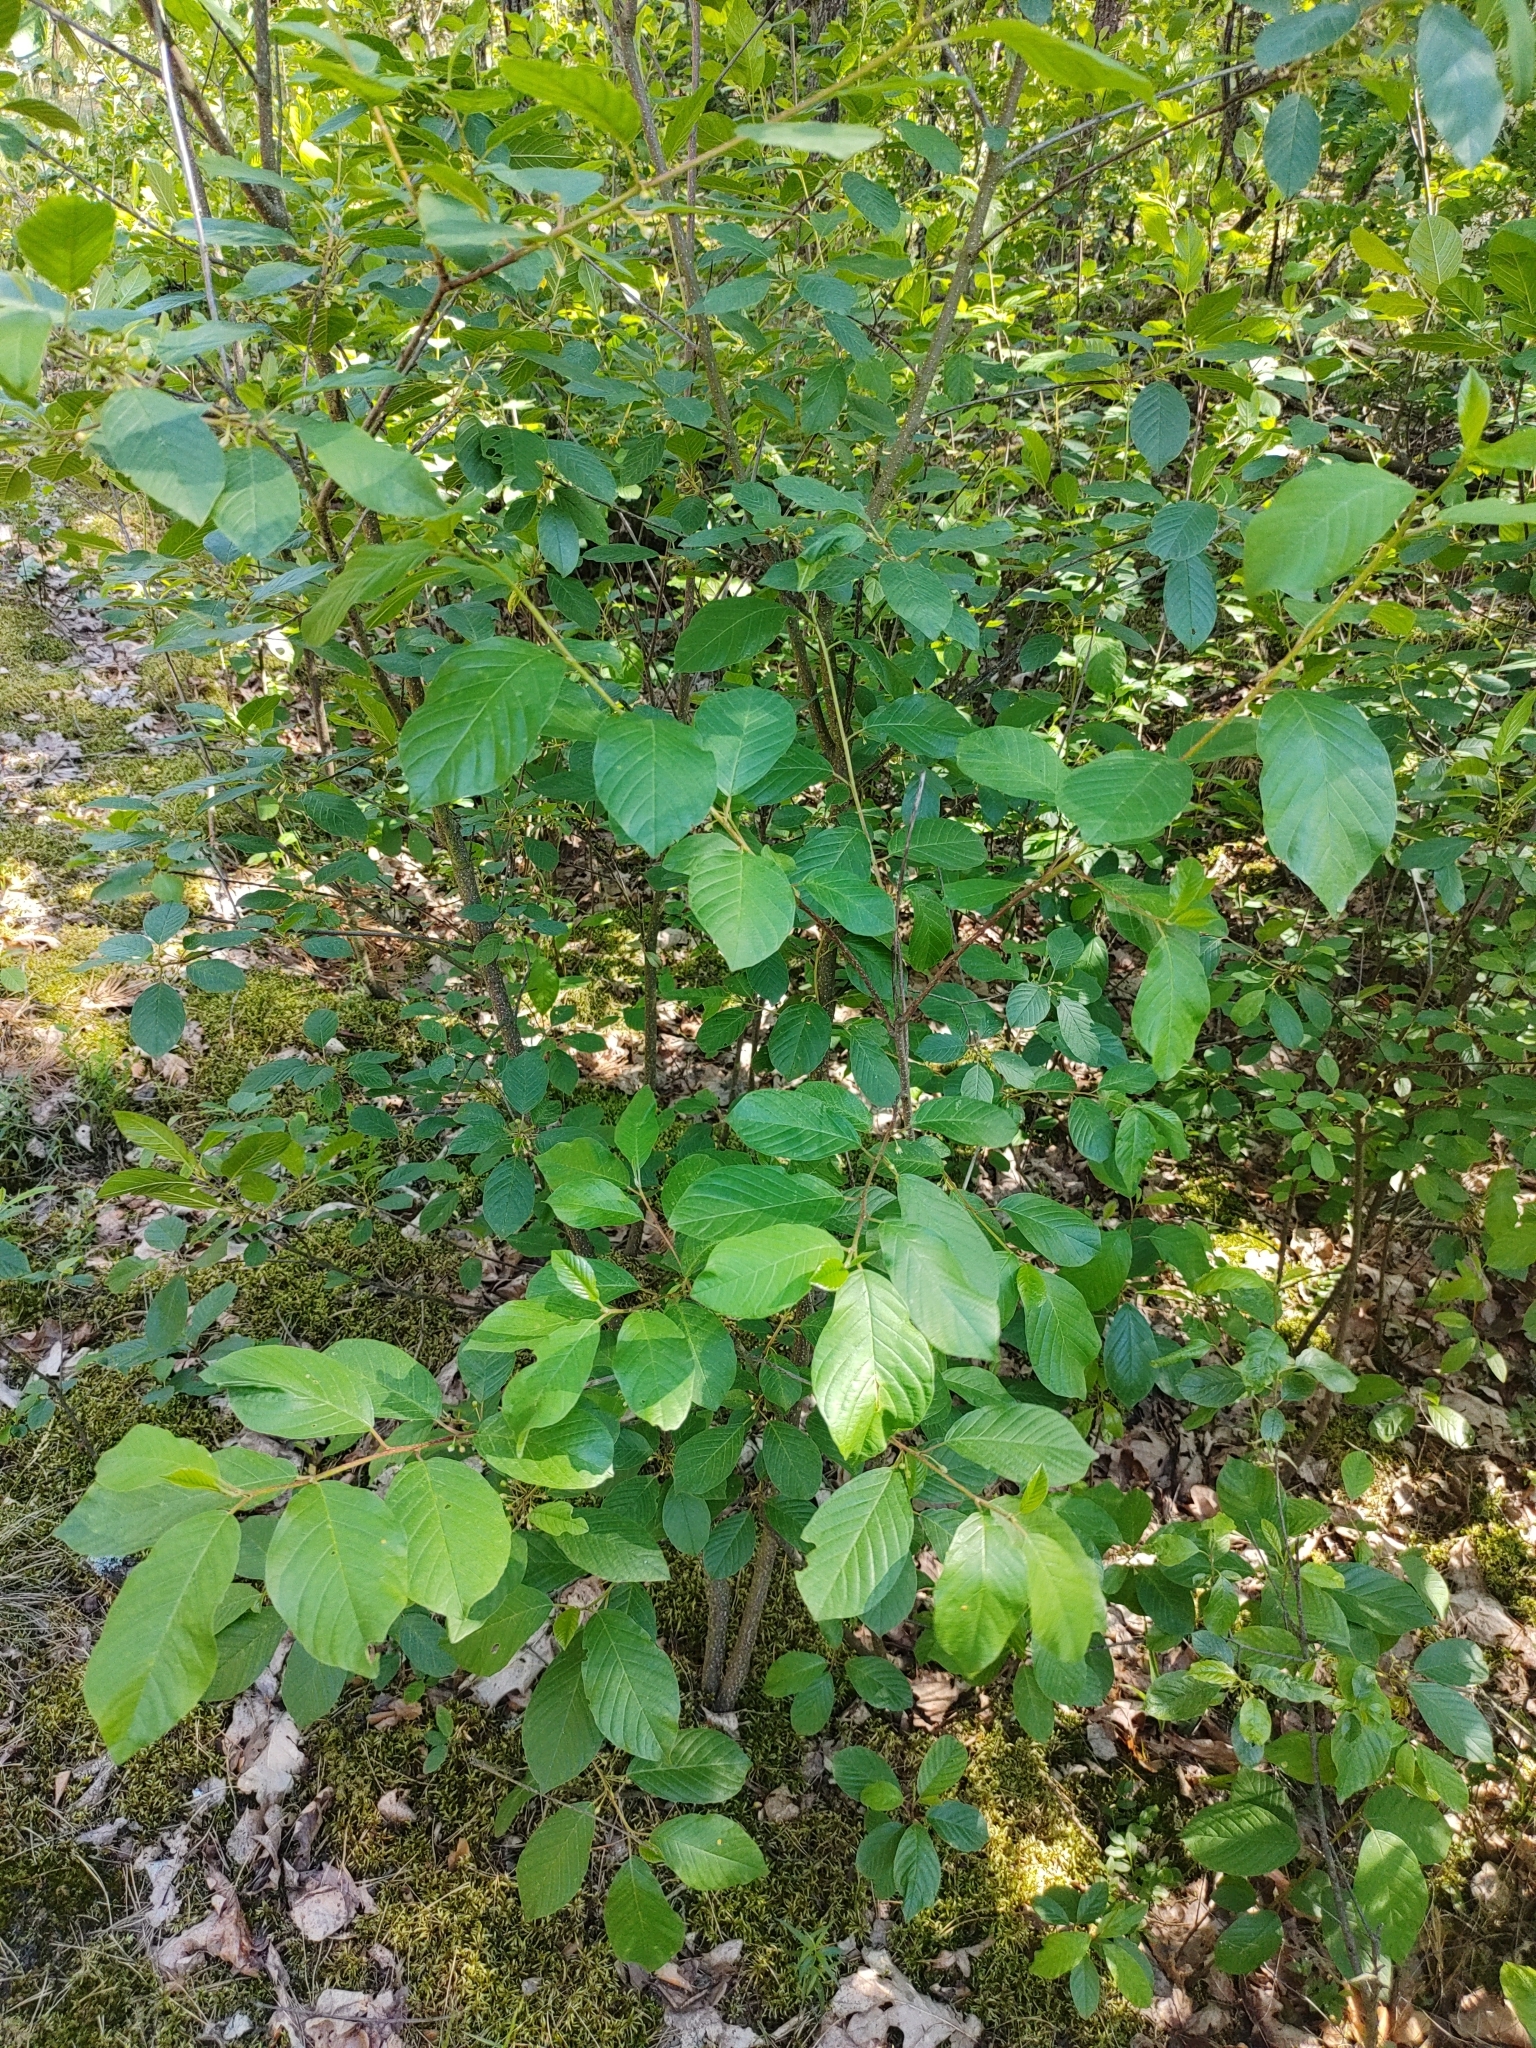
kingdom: Plantae
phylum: Tracheophyta
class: Magnoliopsida
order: Rosales
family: Rhamnaceae
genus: Frangula
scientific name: Frangula alnus
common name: Alder buckthorn
